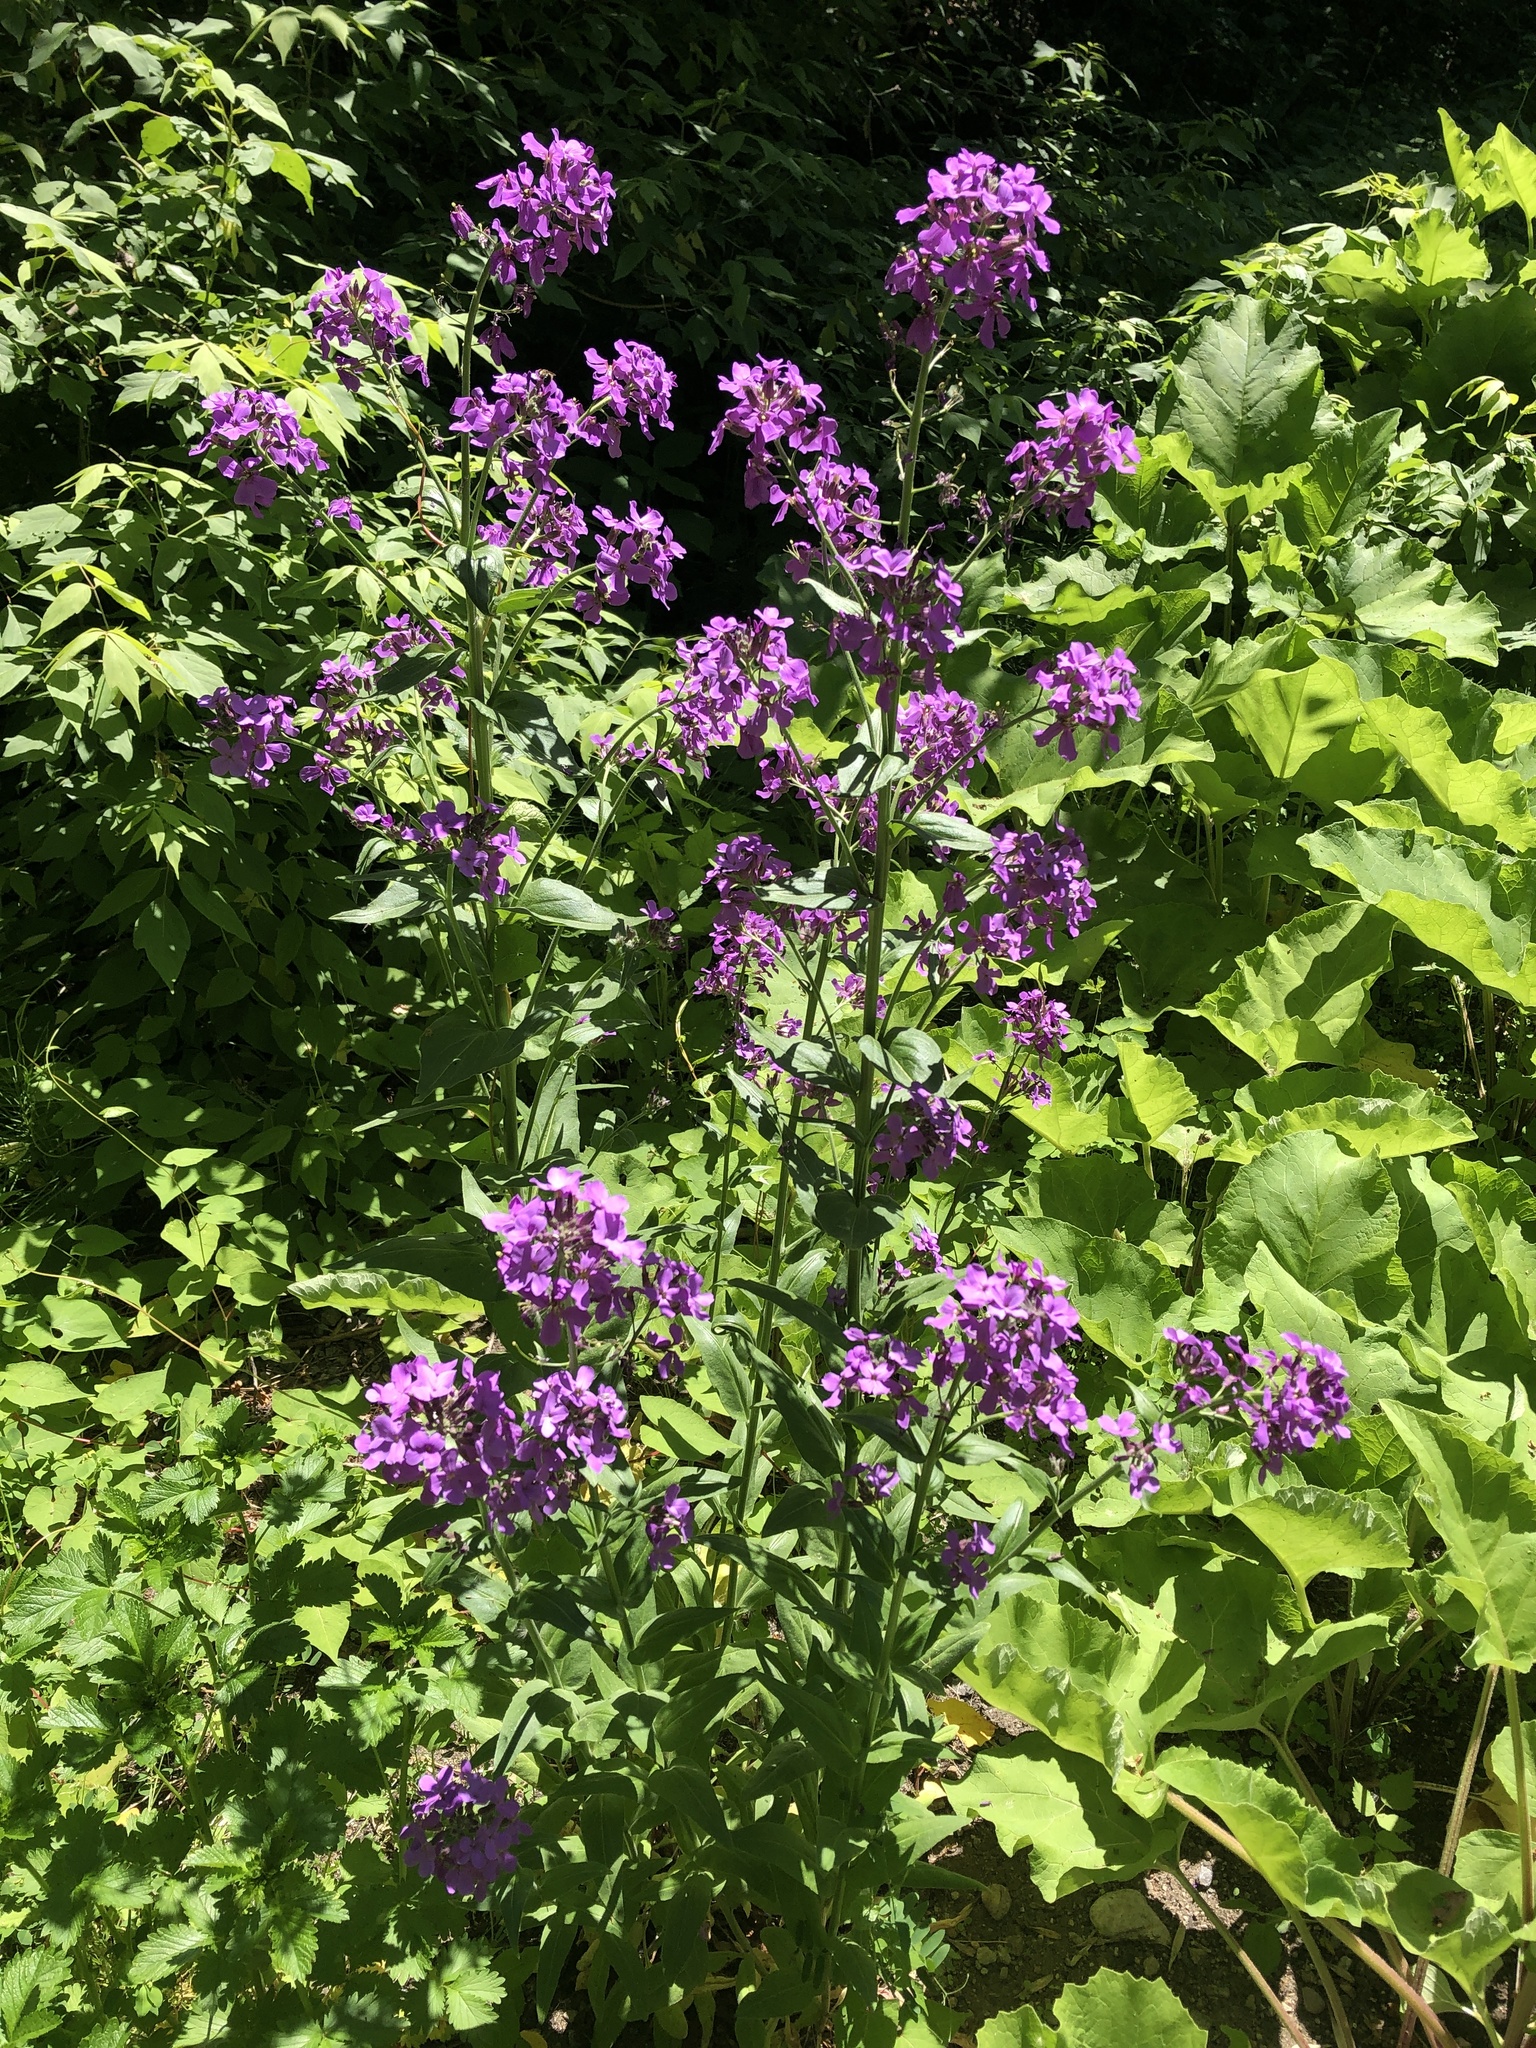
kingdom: Plantae
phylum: Tracheophyta
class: Magnoliopsida
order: Brassicales
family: Brassicaceae
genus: Hesperis
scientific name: Hesperis matronalis
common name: Dame's-violet
